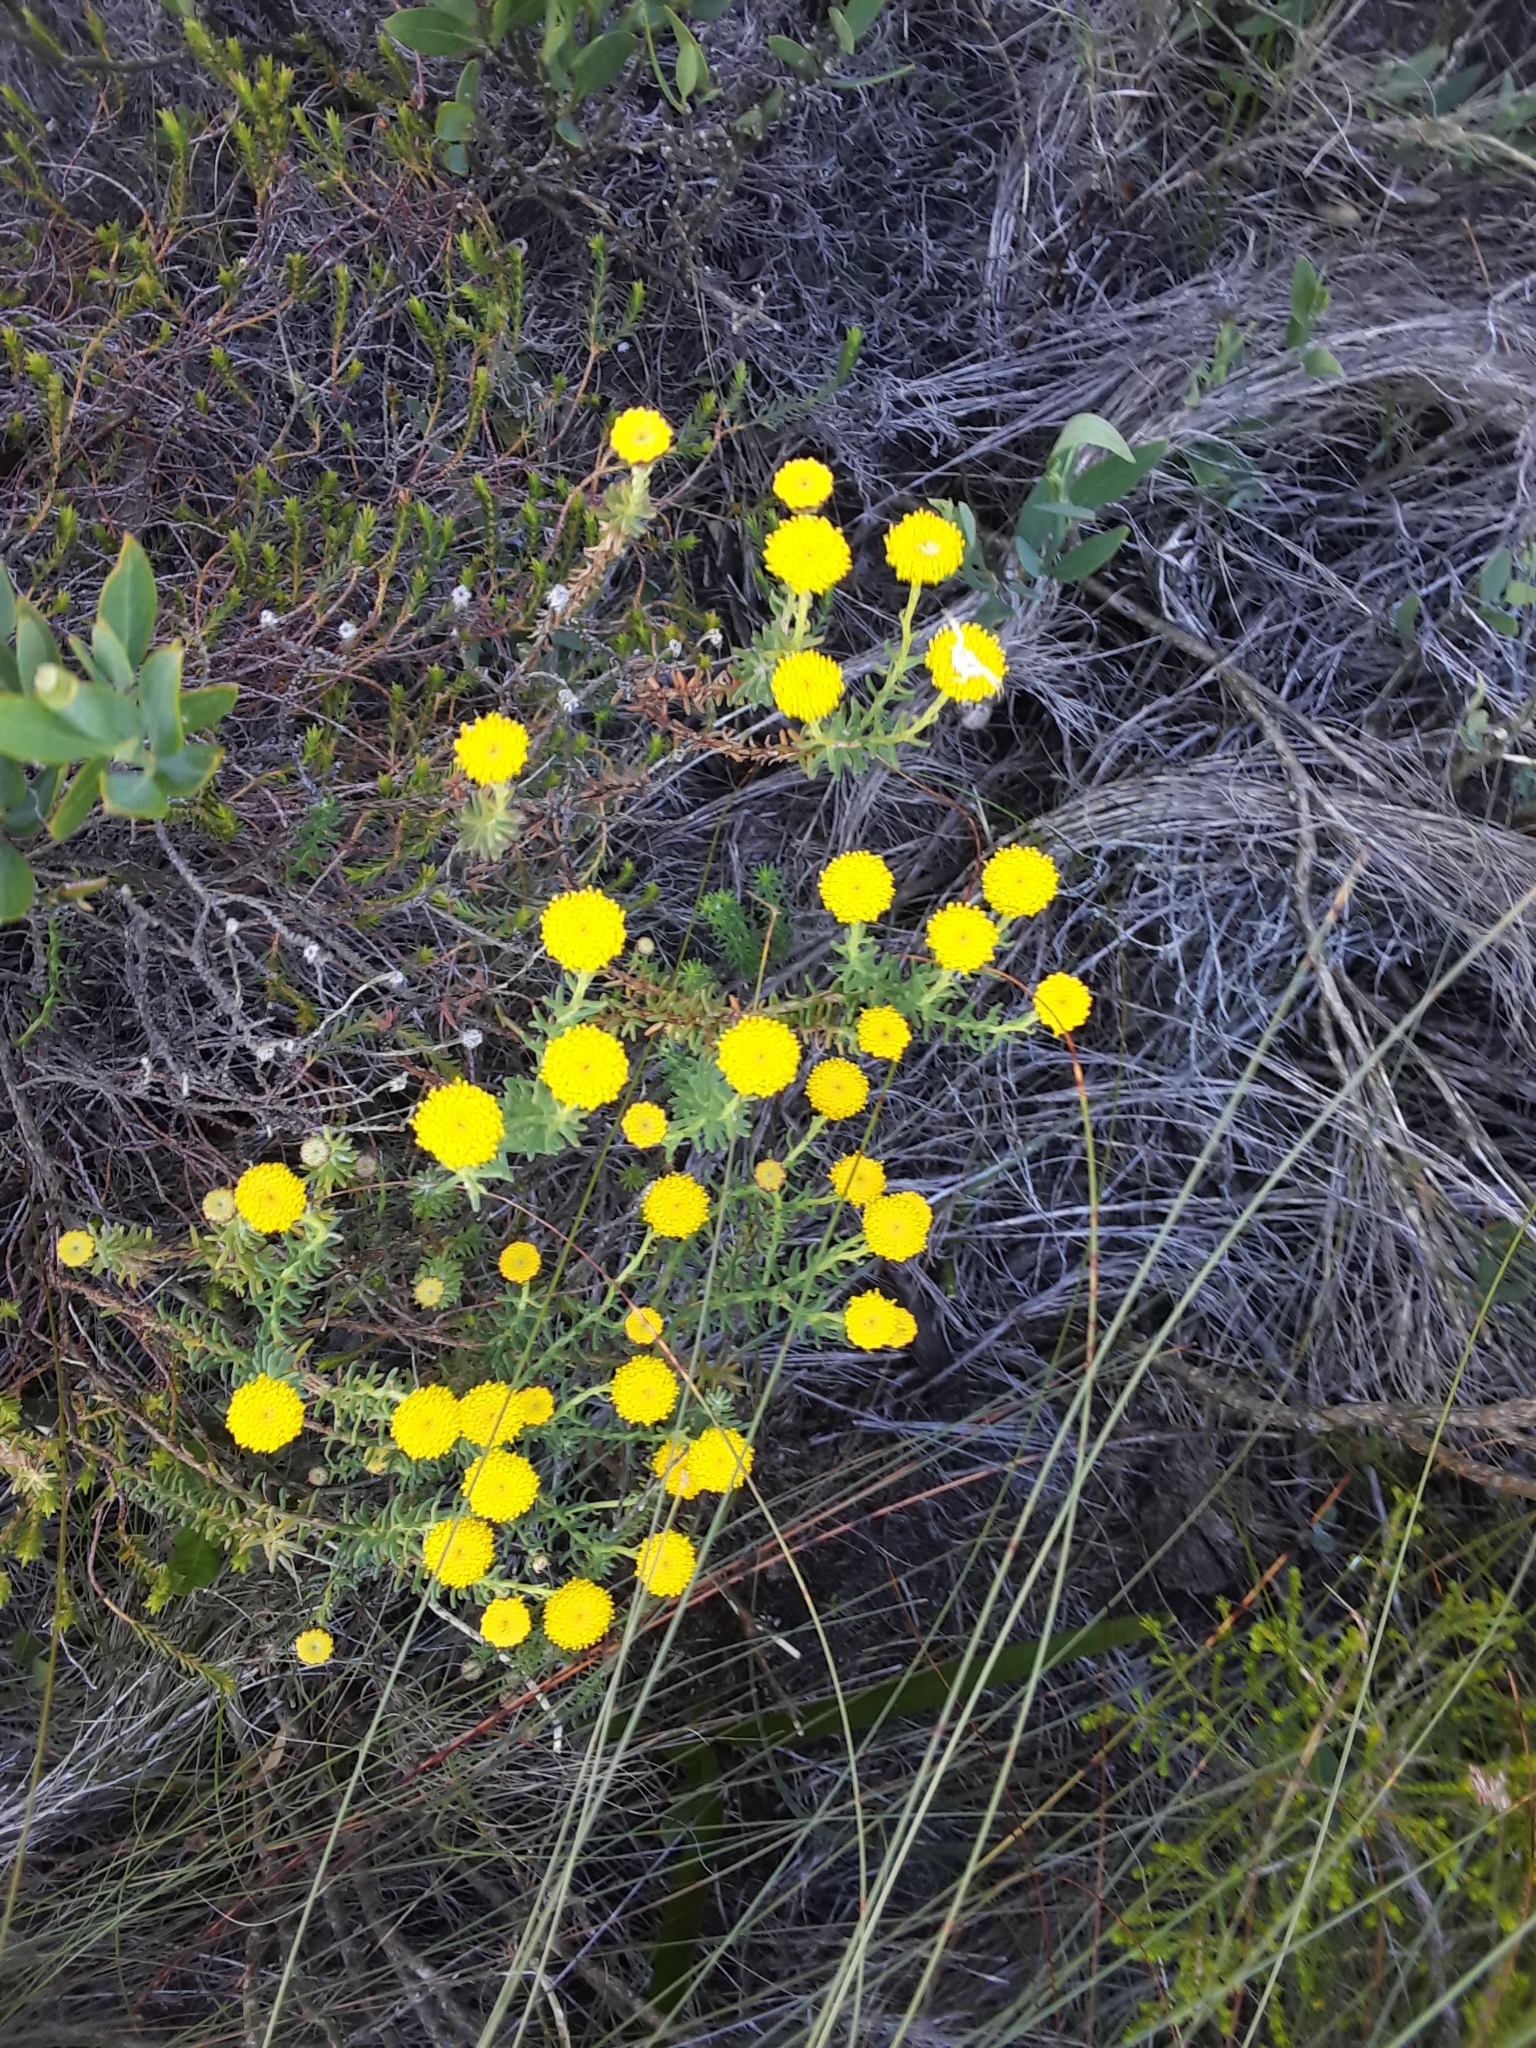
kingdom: Plantae
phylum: Tracheophyta
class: Magnoliopsida
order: Asterales
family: Asteraceae
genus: Chrysocoma
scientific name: Chrysocoma cernua
